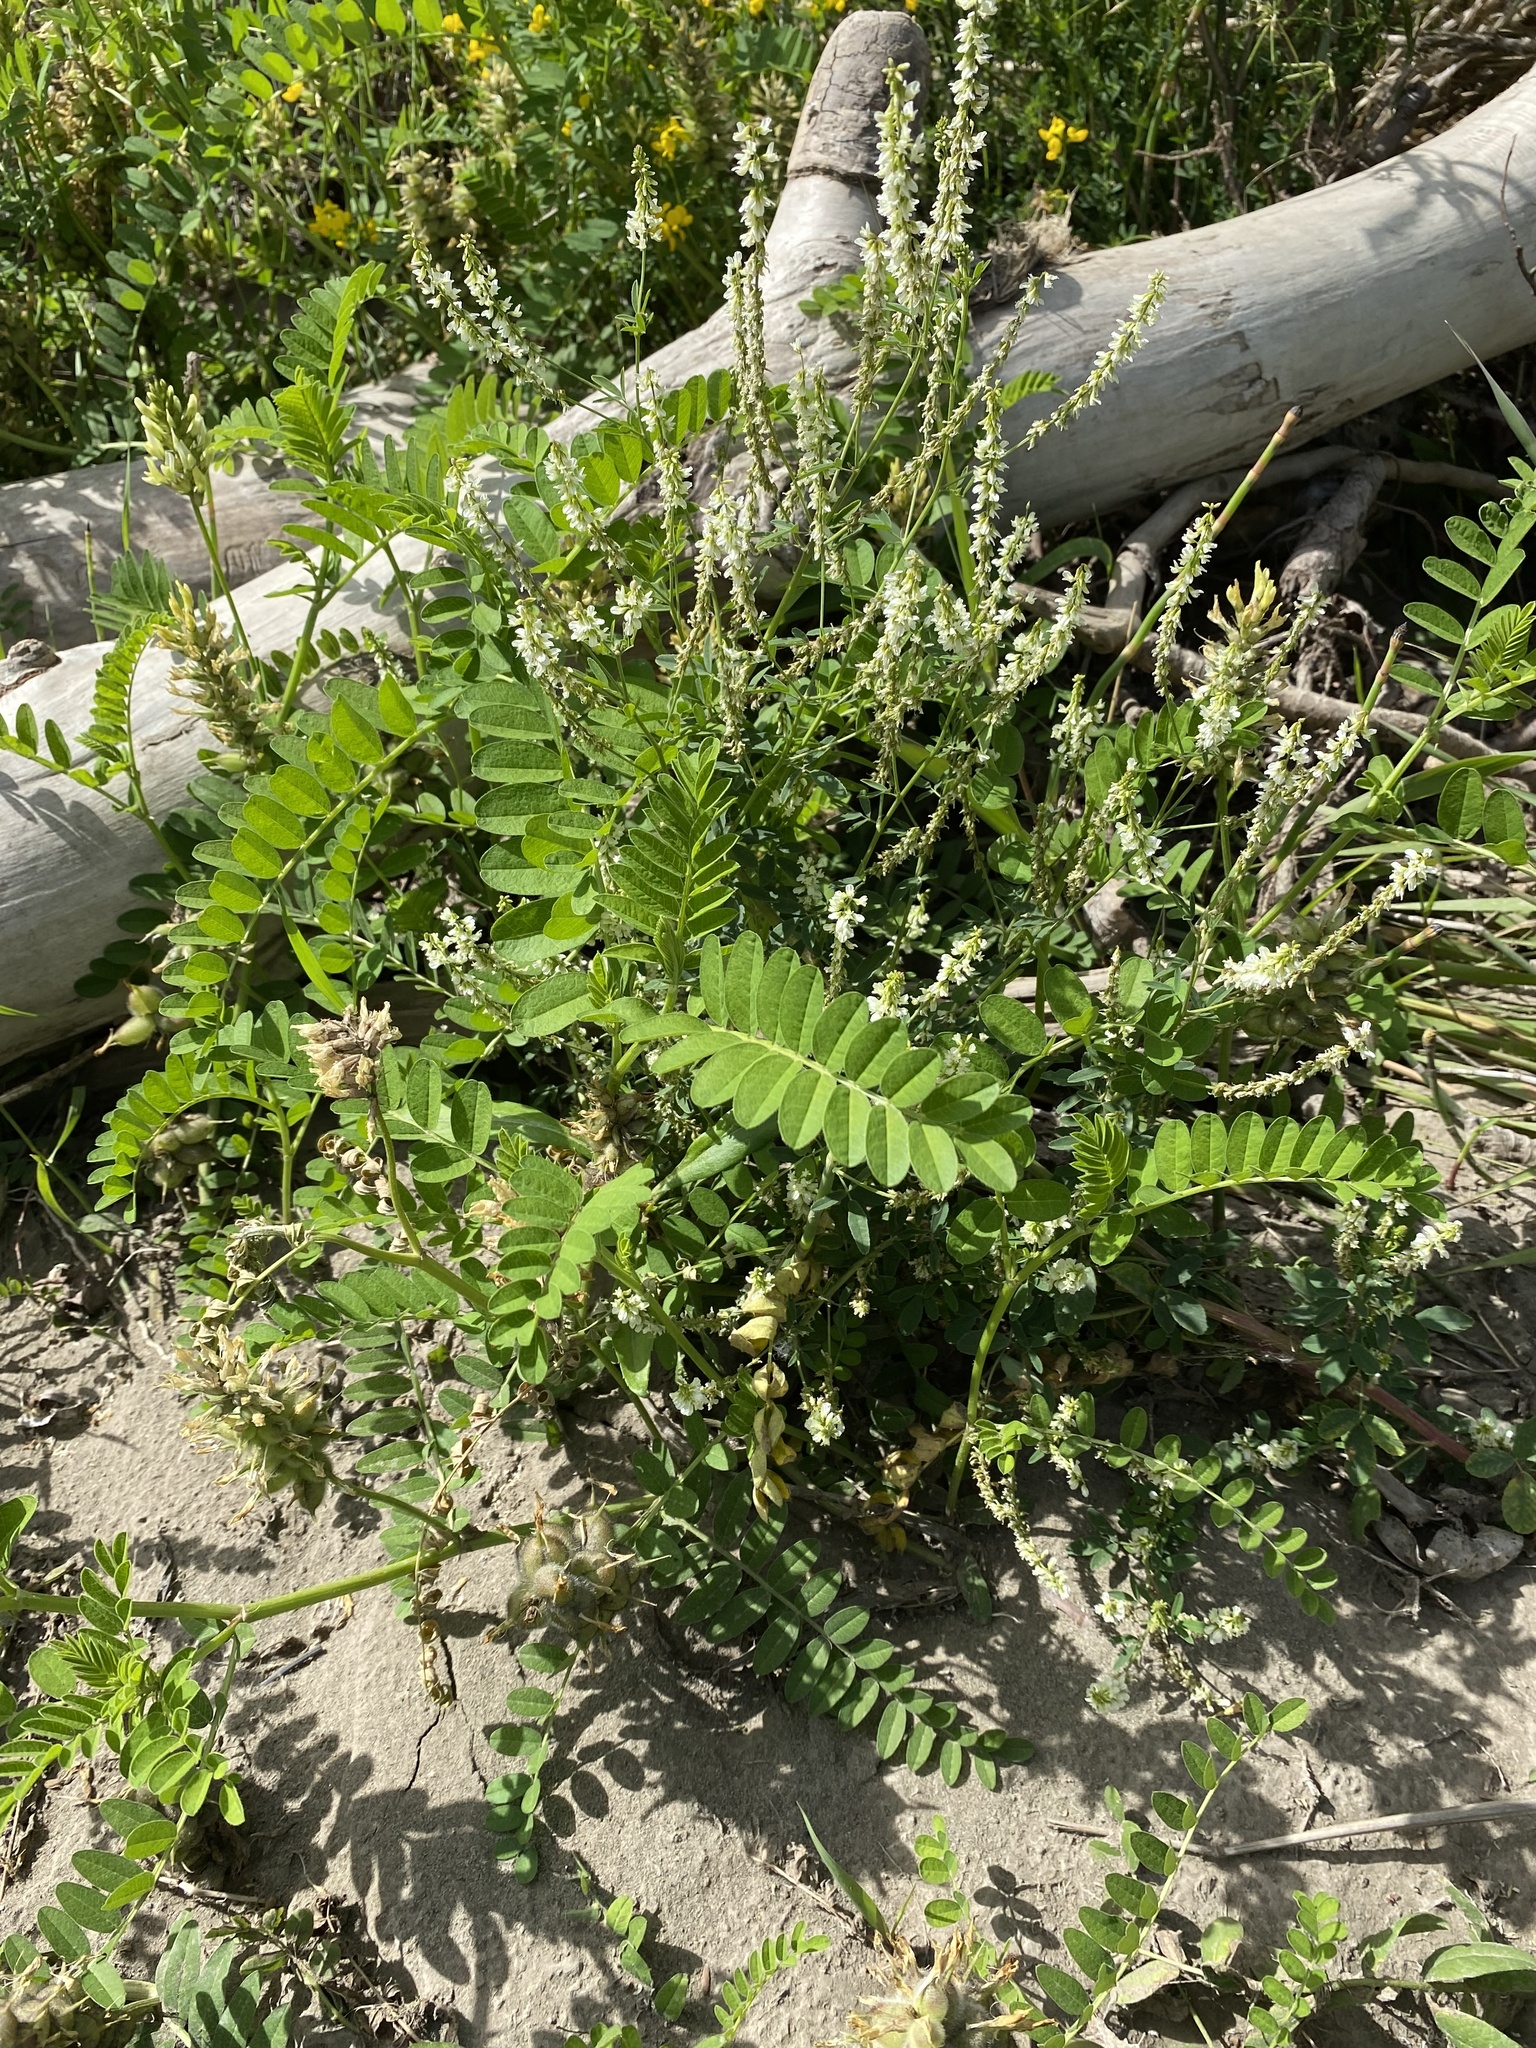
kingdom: Plantae
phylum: Tracheophyta
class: Magnoliopsida
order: Fabales
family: Fabaceae
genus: Astragalus
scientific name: Astragalus cicer
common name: Chick-pea milk-vetch
